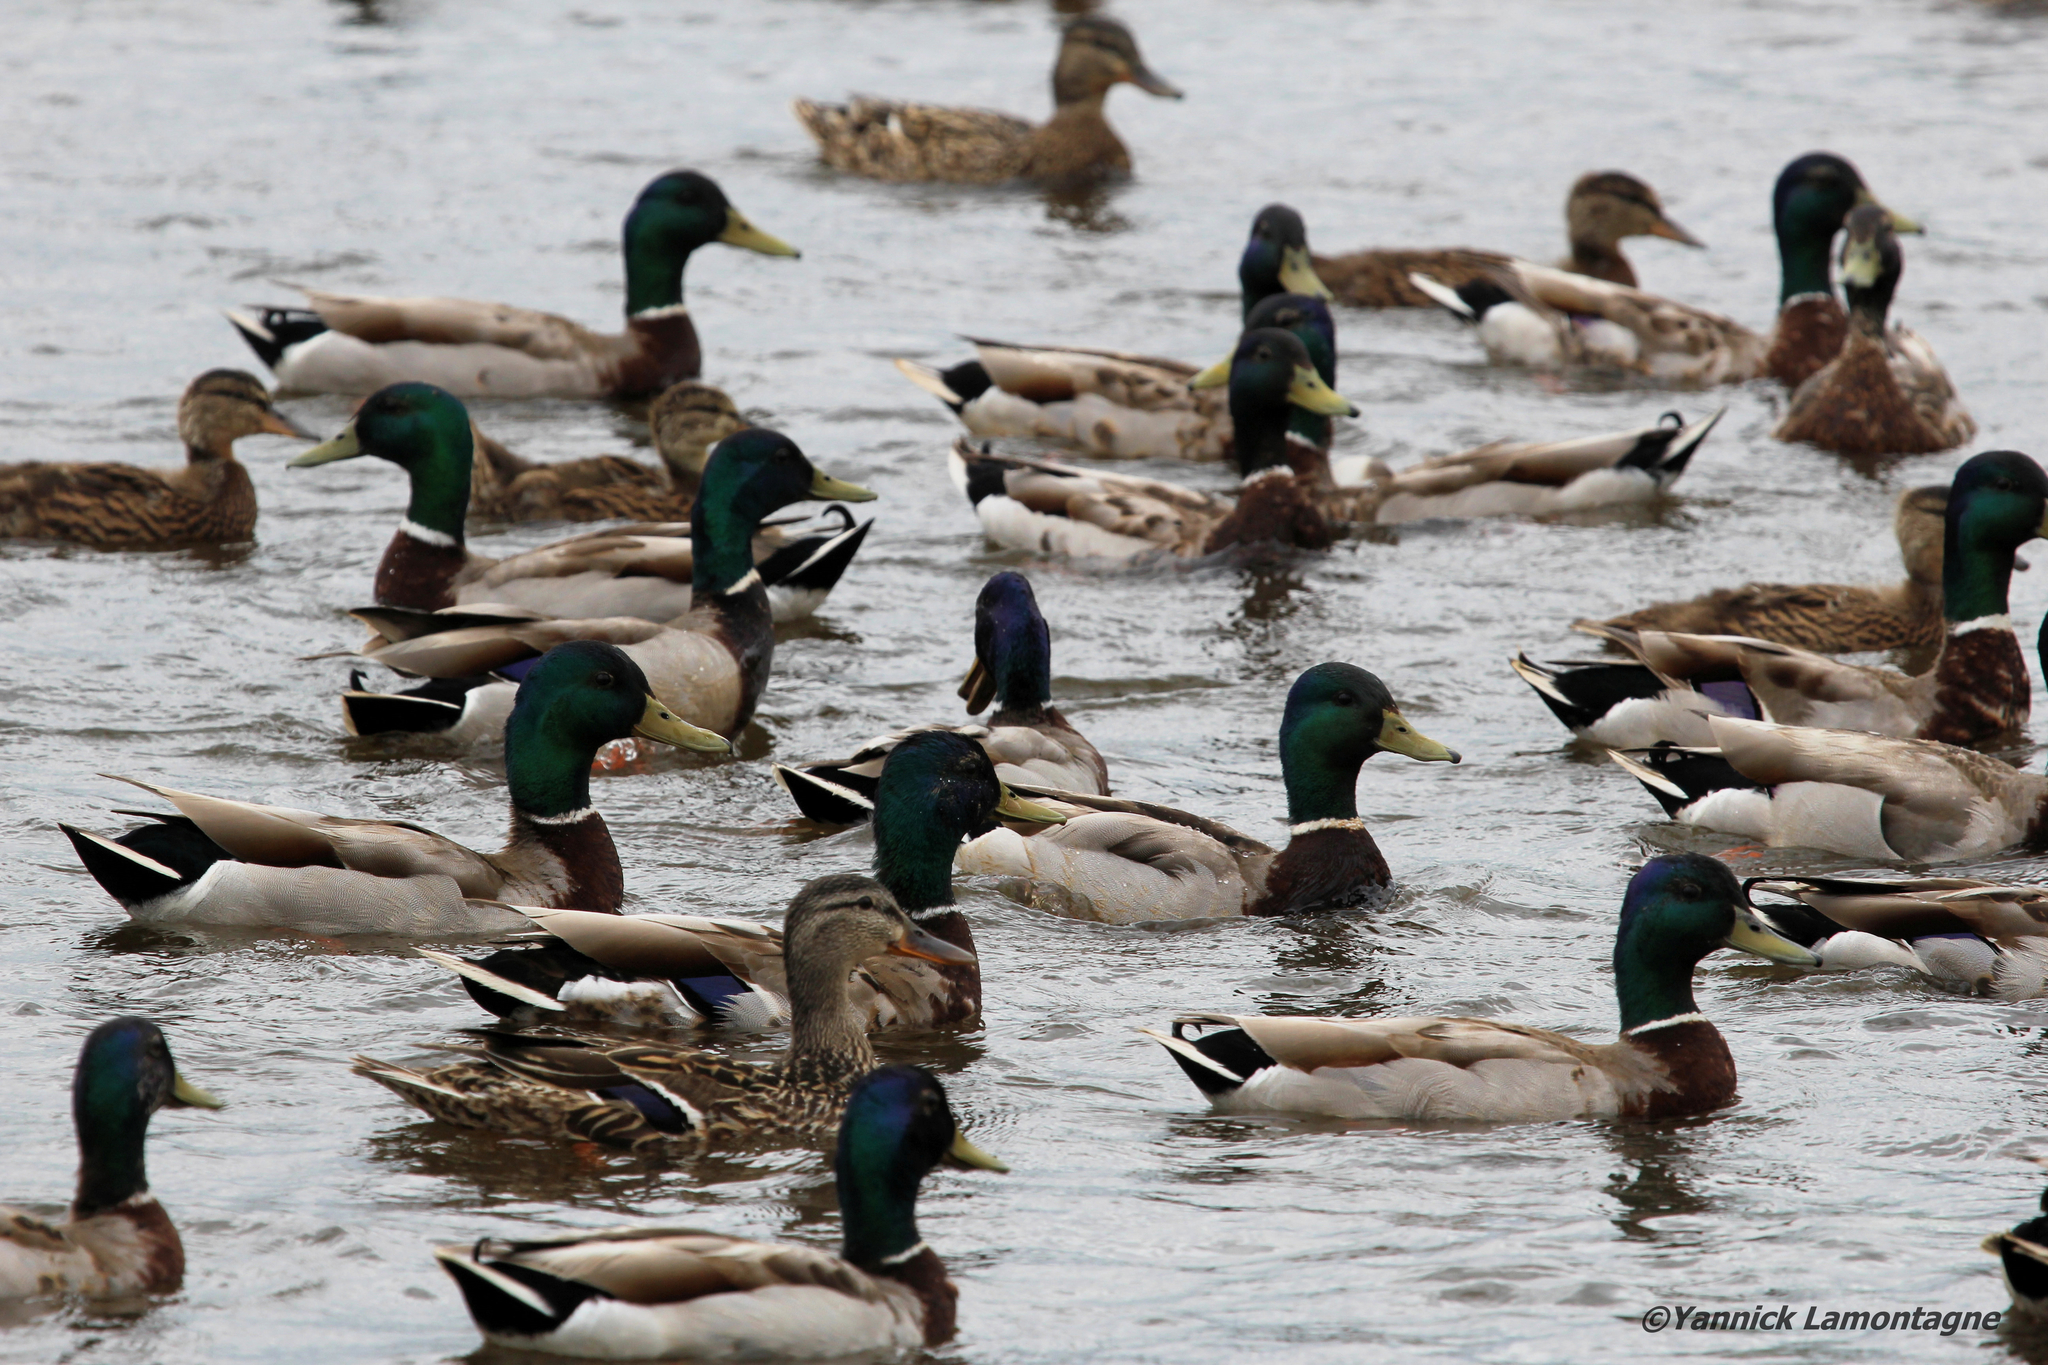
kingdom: Animalia
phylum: Chordata
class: Aves
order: Anseriformes
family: Anatidae
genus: Anas
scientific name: Anas platyrhynchos
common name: Mallard
